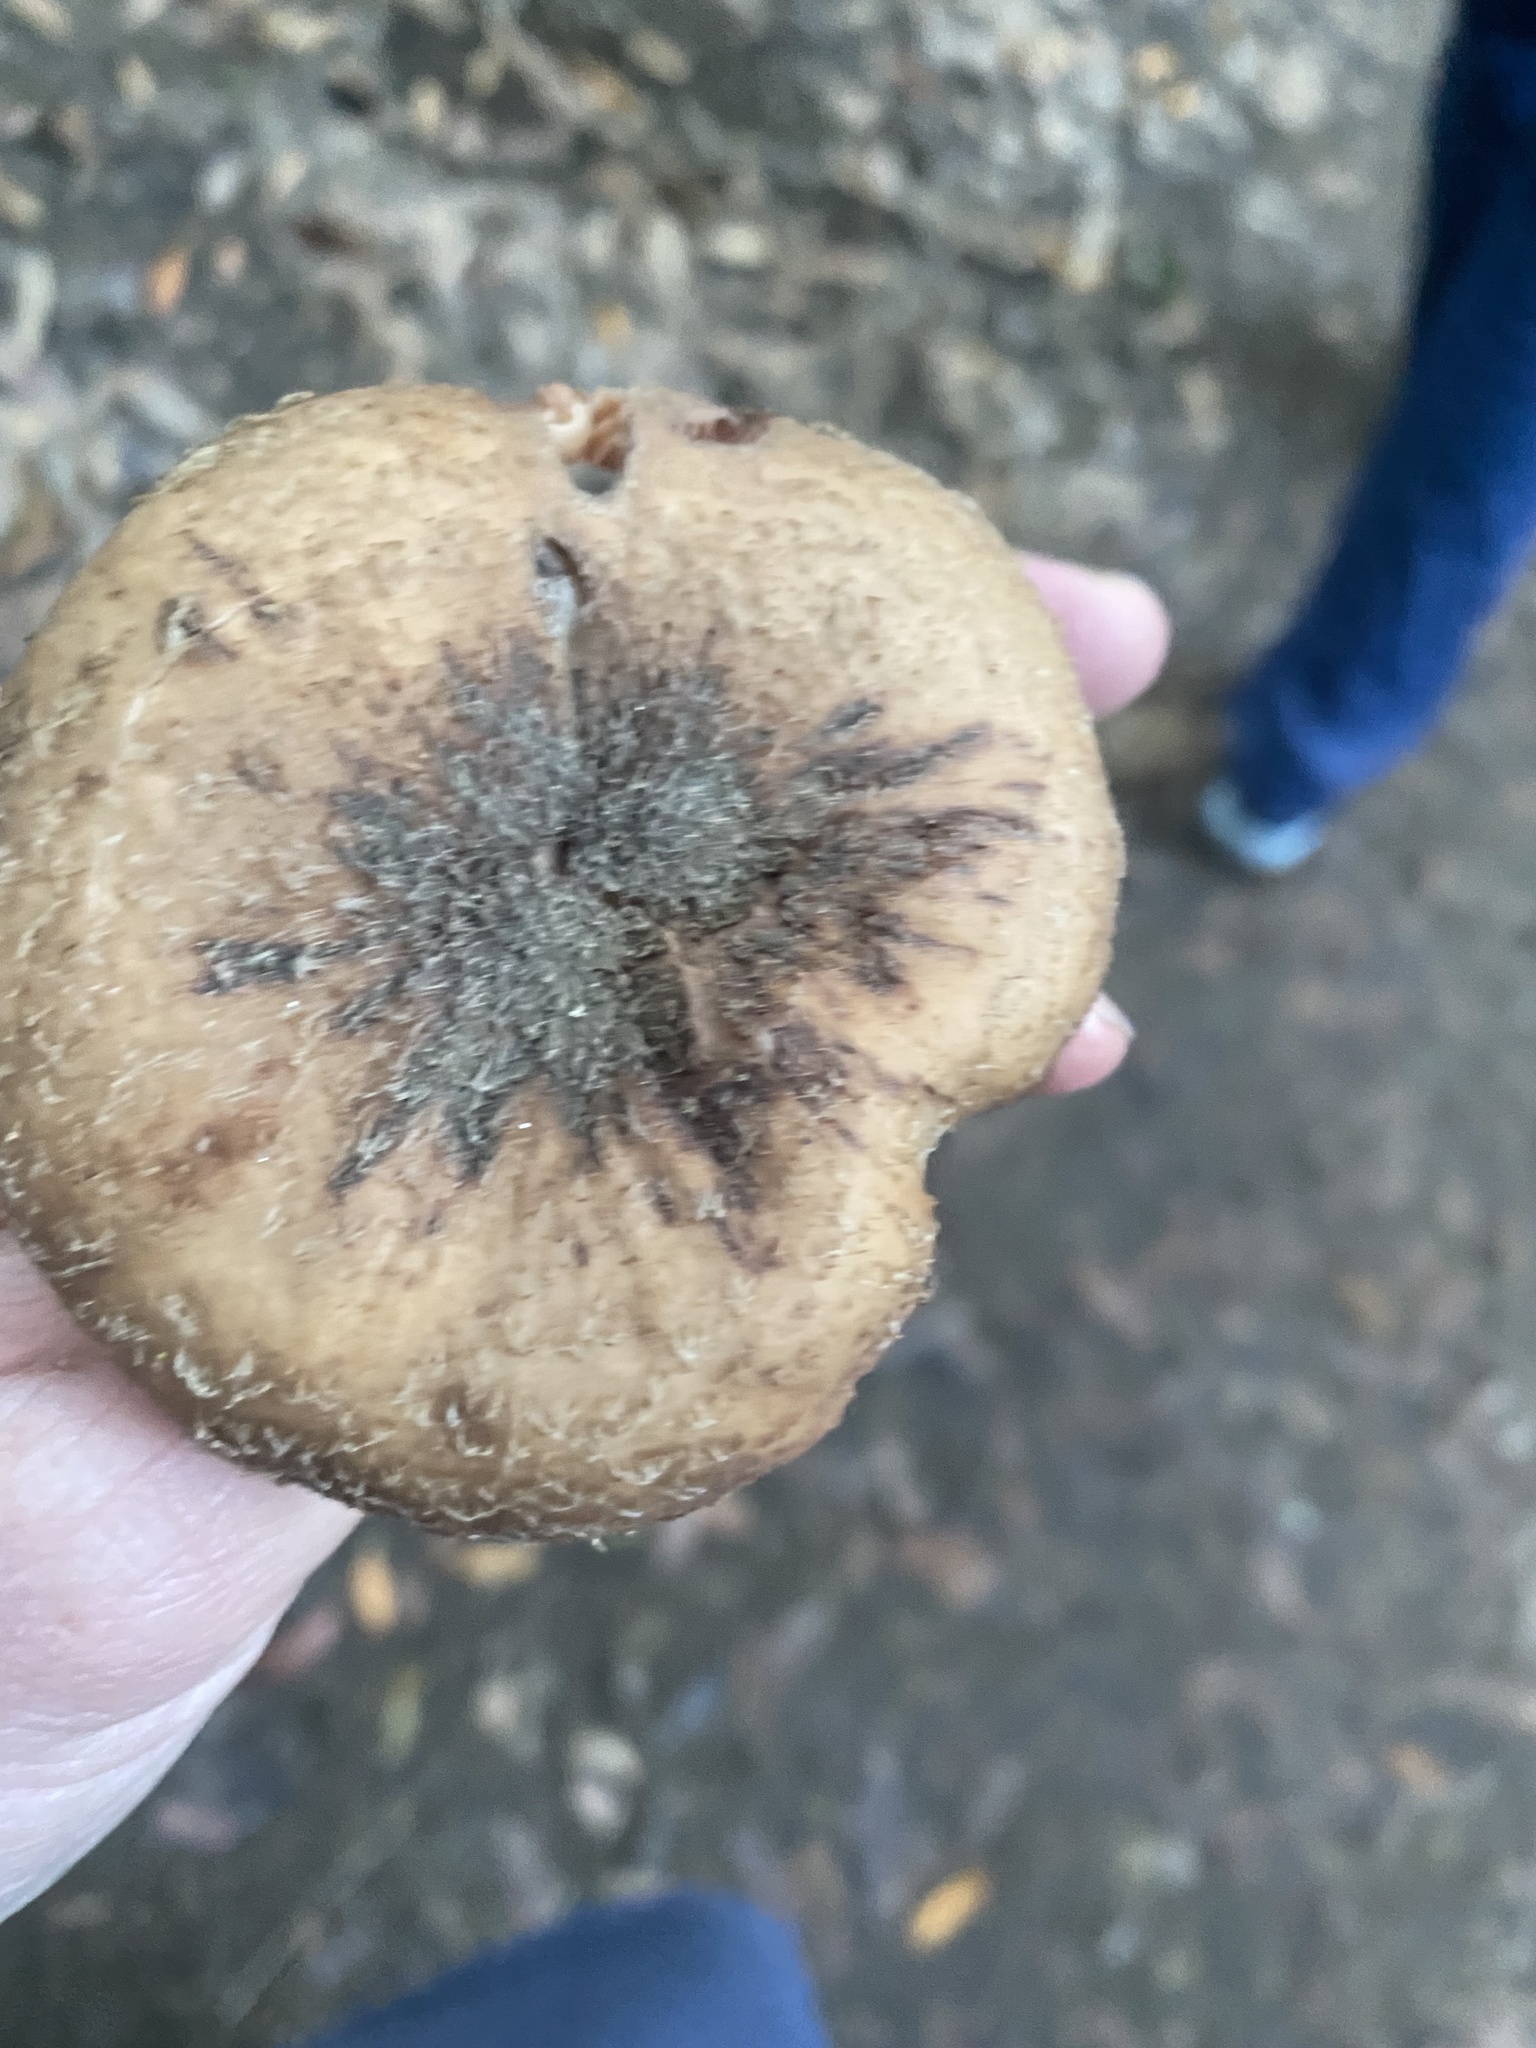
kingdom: Fungi
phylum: Basidiomycota
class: Agaricomycetes
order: Agaricales
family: Physalacriaceae
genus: Armillaria
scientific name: Armillaria mellea
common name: Honey fungus
